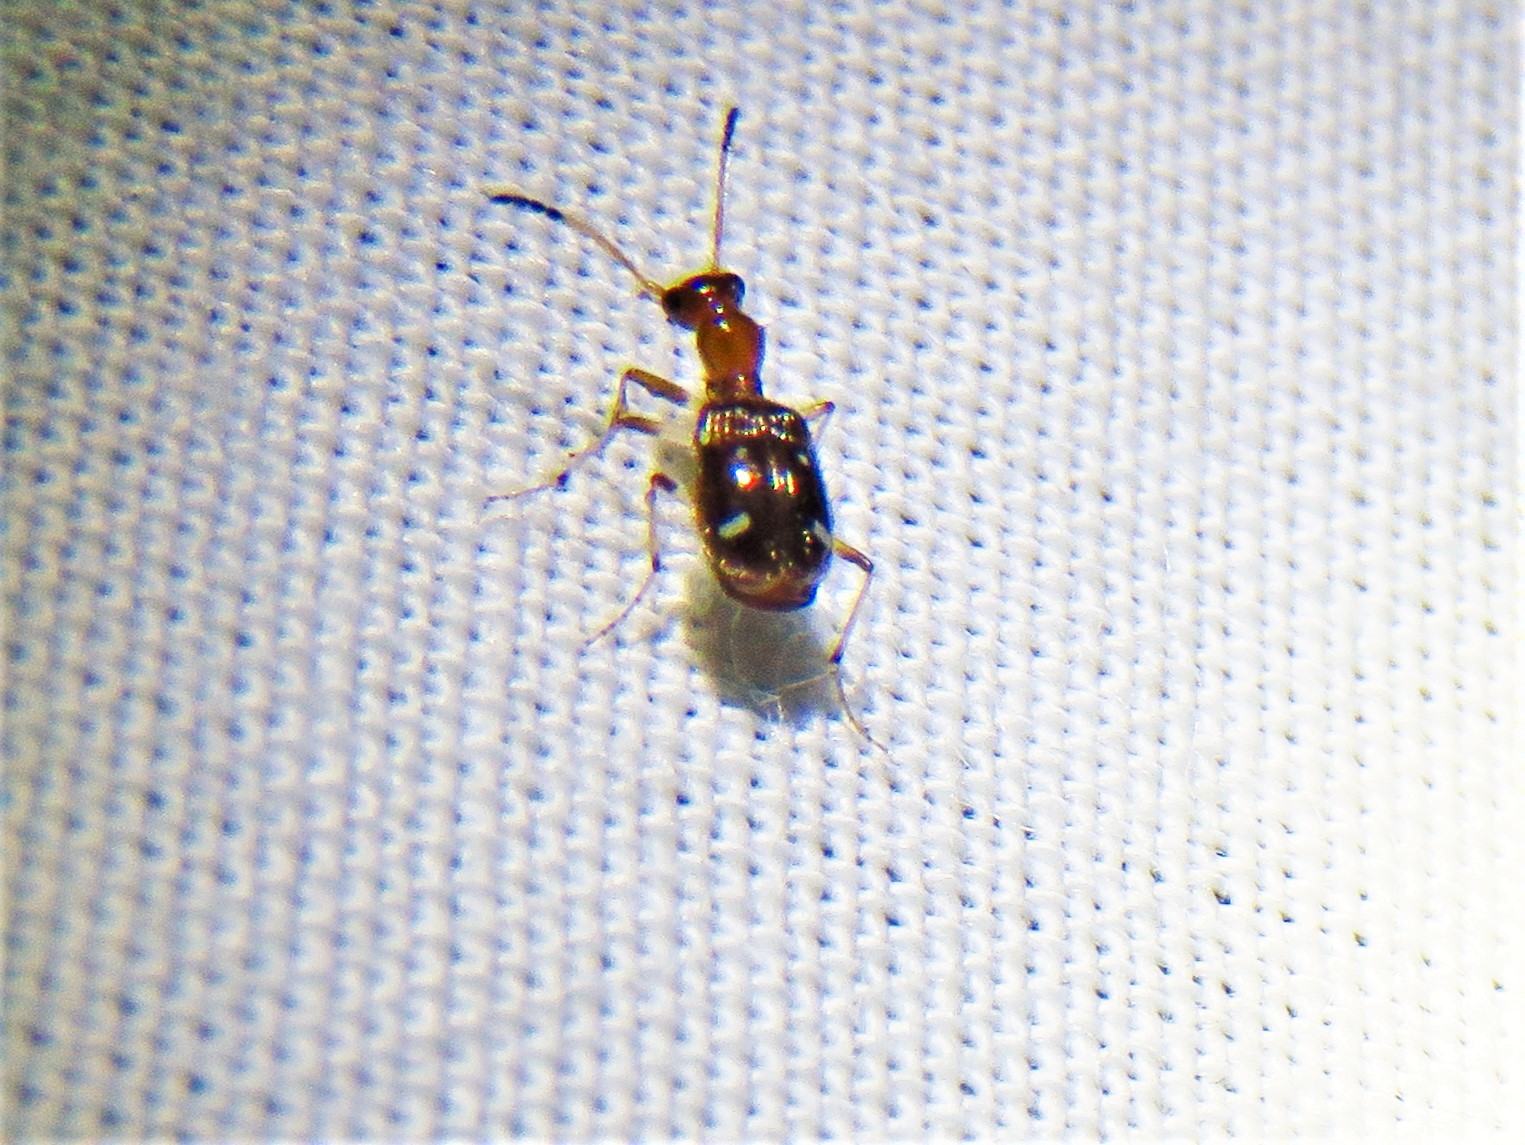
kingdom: Animalia
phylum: Arthropoda
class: Insecta
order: Coleoptera
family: Carabidae
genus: Ega
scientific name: Ega sallei
